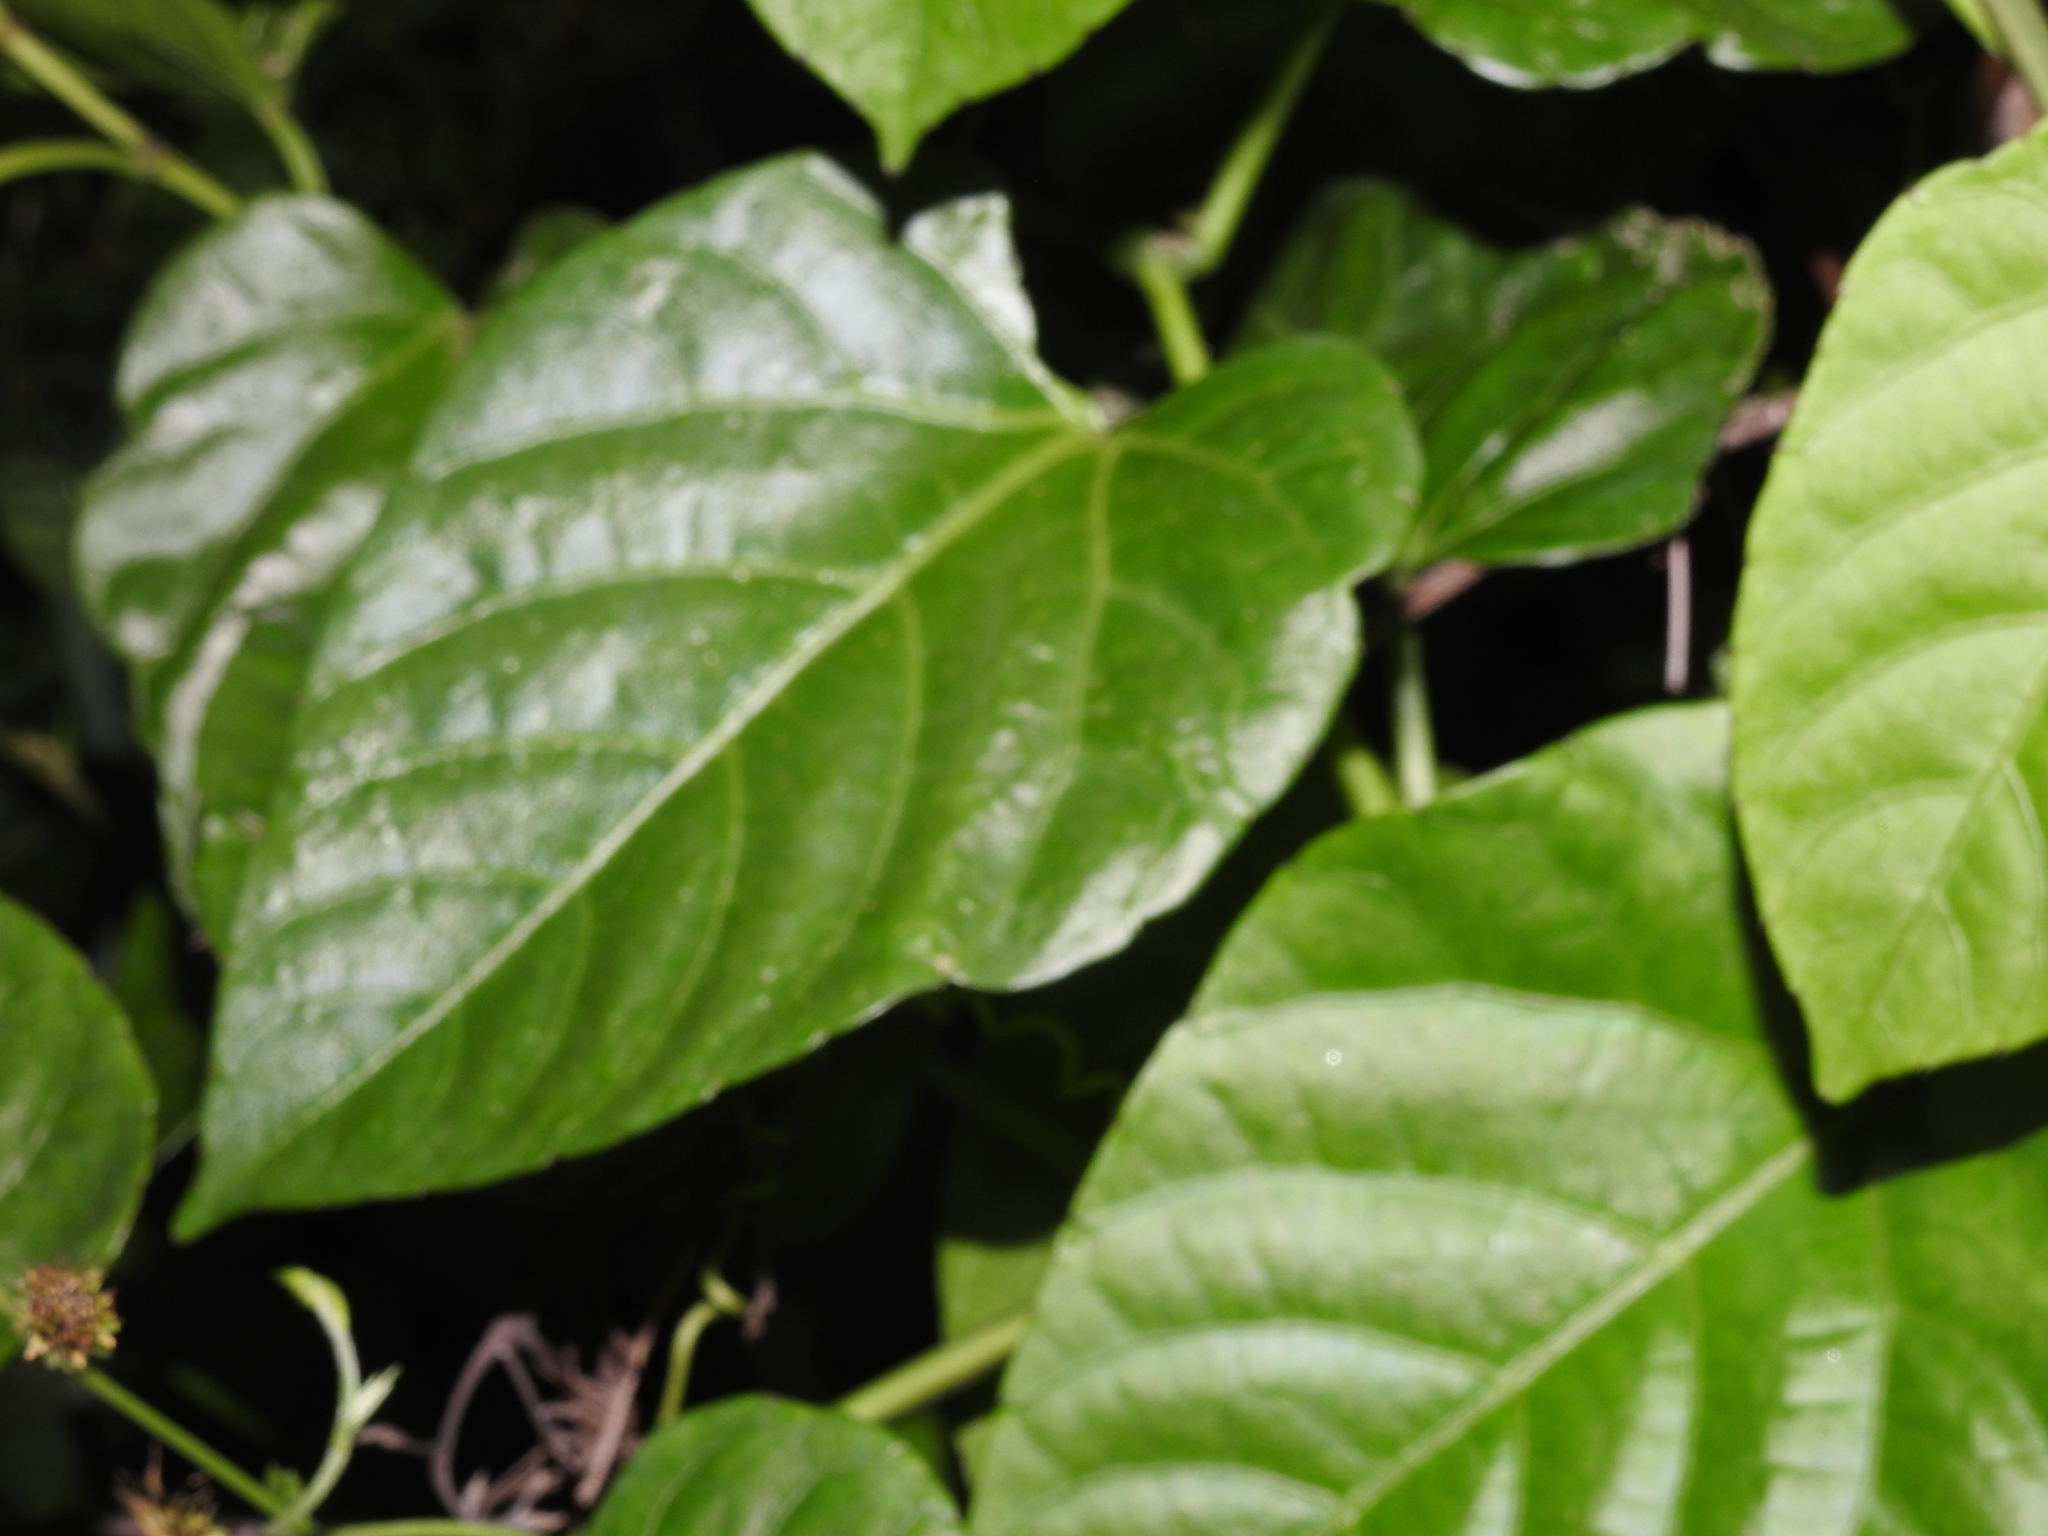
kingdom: Plantae
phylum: Tracheophyta
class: Magnoliopsida
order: Vitales
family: Vitaceae
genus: Cissus
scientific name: Cissus verticillata
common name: Princess vine
